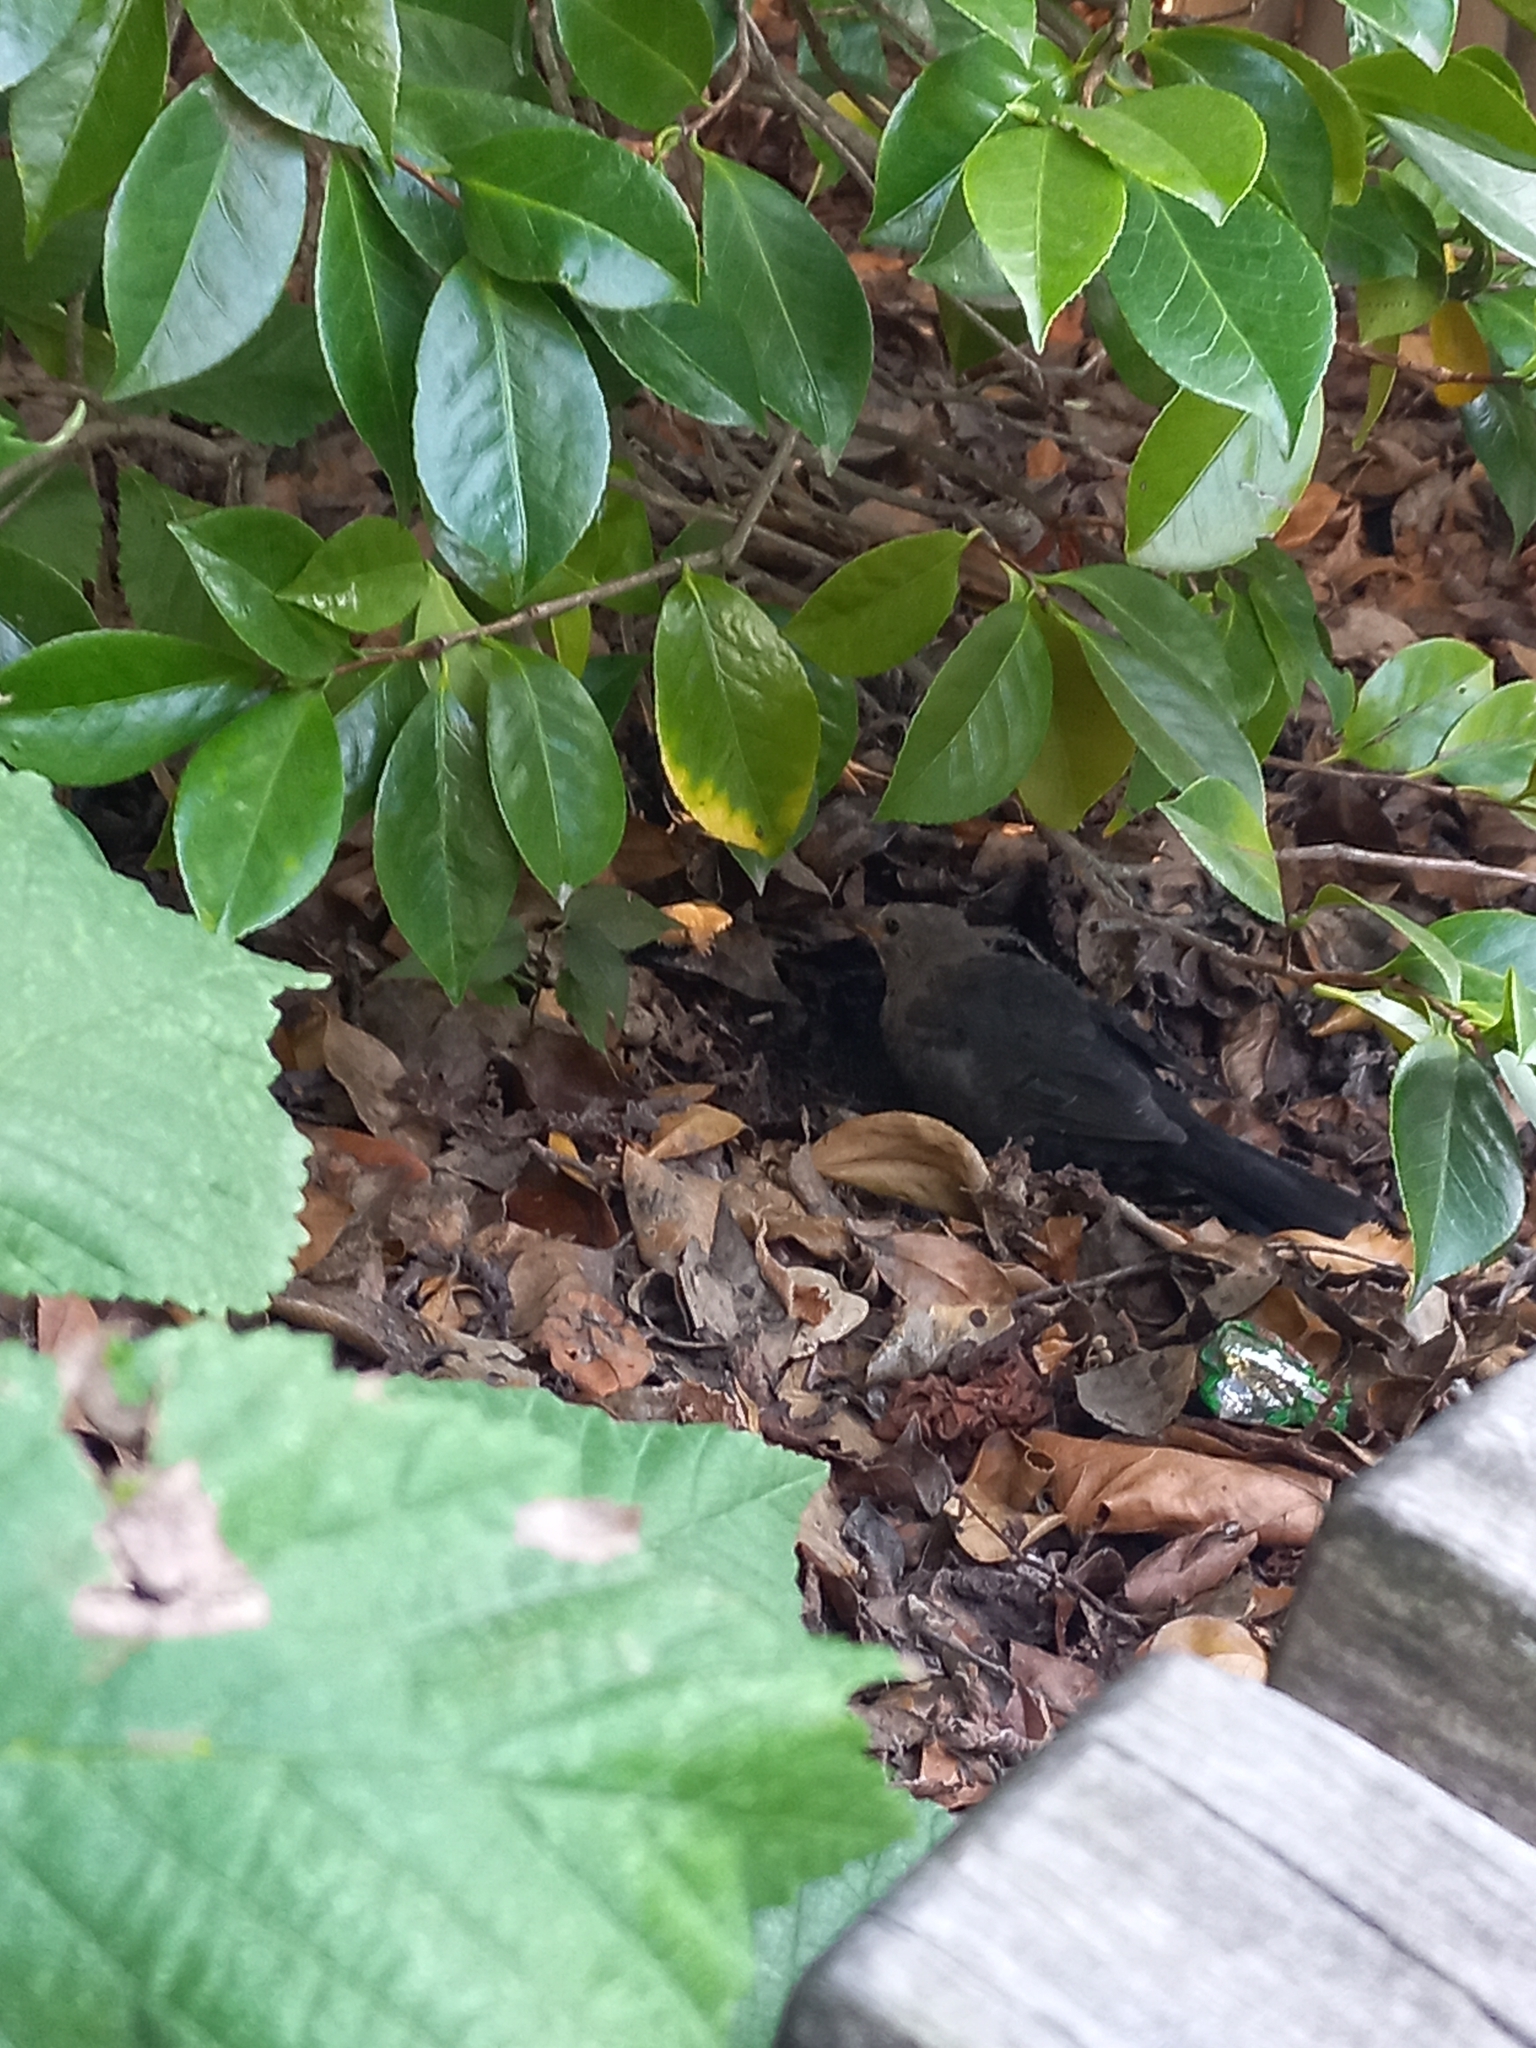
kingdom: Animalia
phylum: Chordata
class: Aves
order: Passeriformes
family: Turdidae
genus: Turdus
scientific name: Turdus merula
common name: Common blackbird
